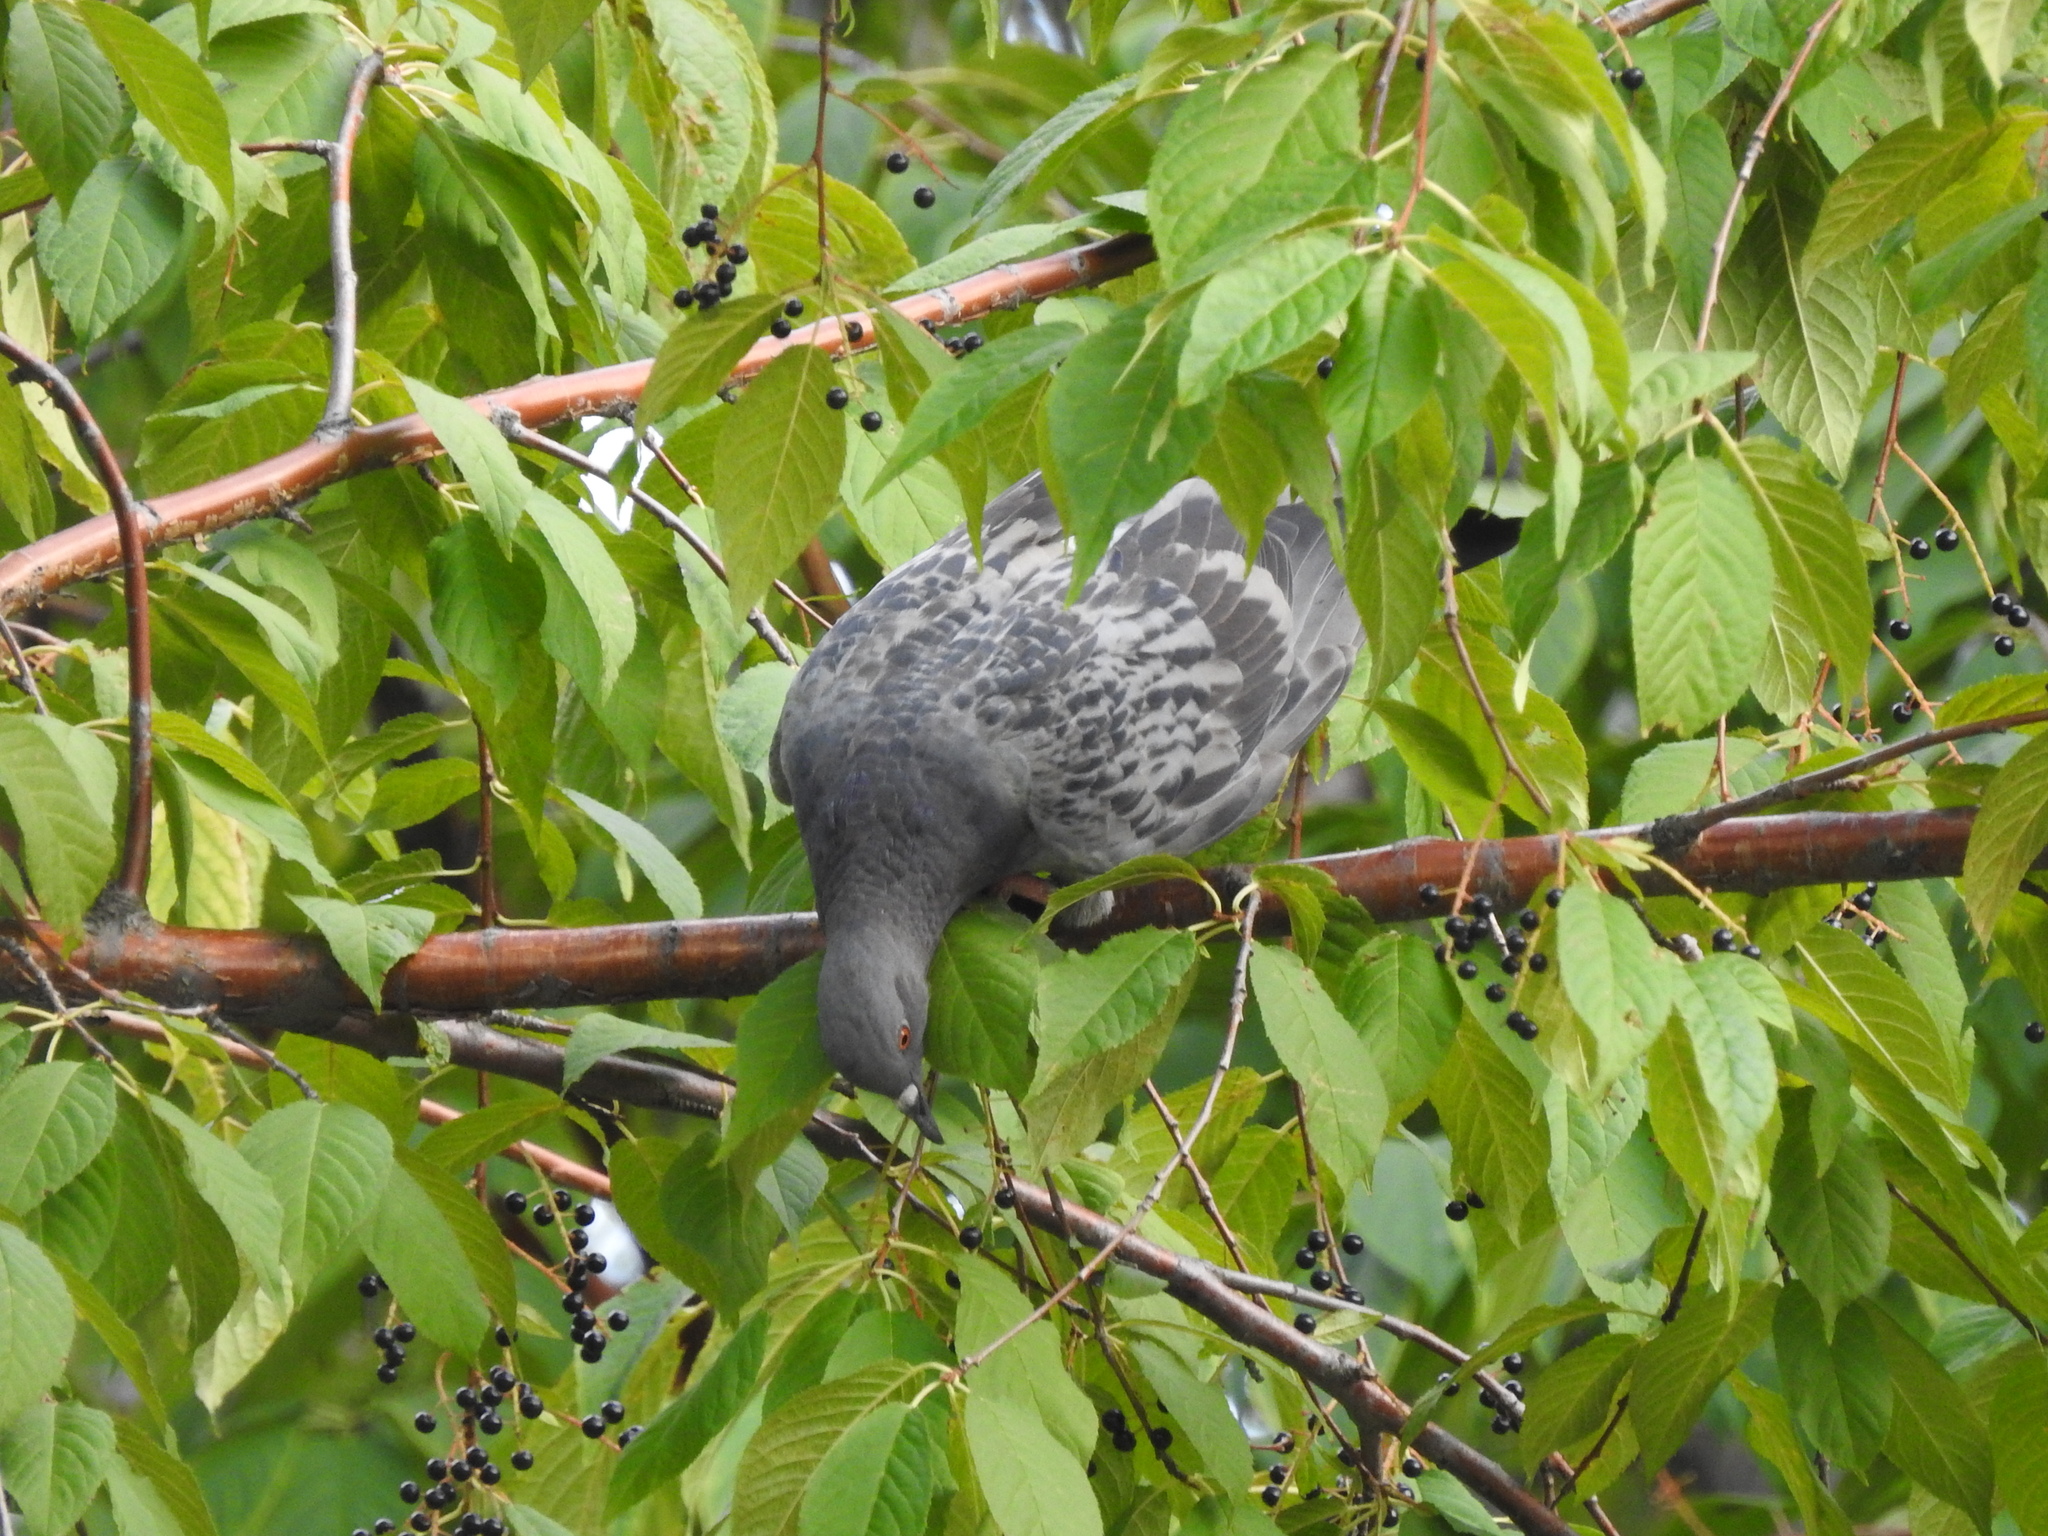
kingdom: Animalia
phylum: Chordata
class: Aves
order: Columbiformes
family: Columbidae
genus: Columba
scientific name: Columba livia
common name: Rock pigeon
